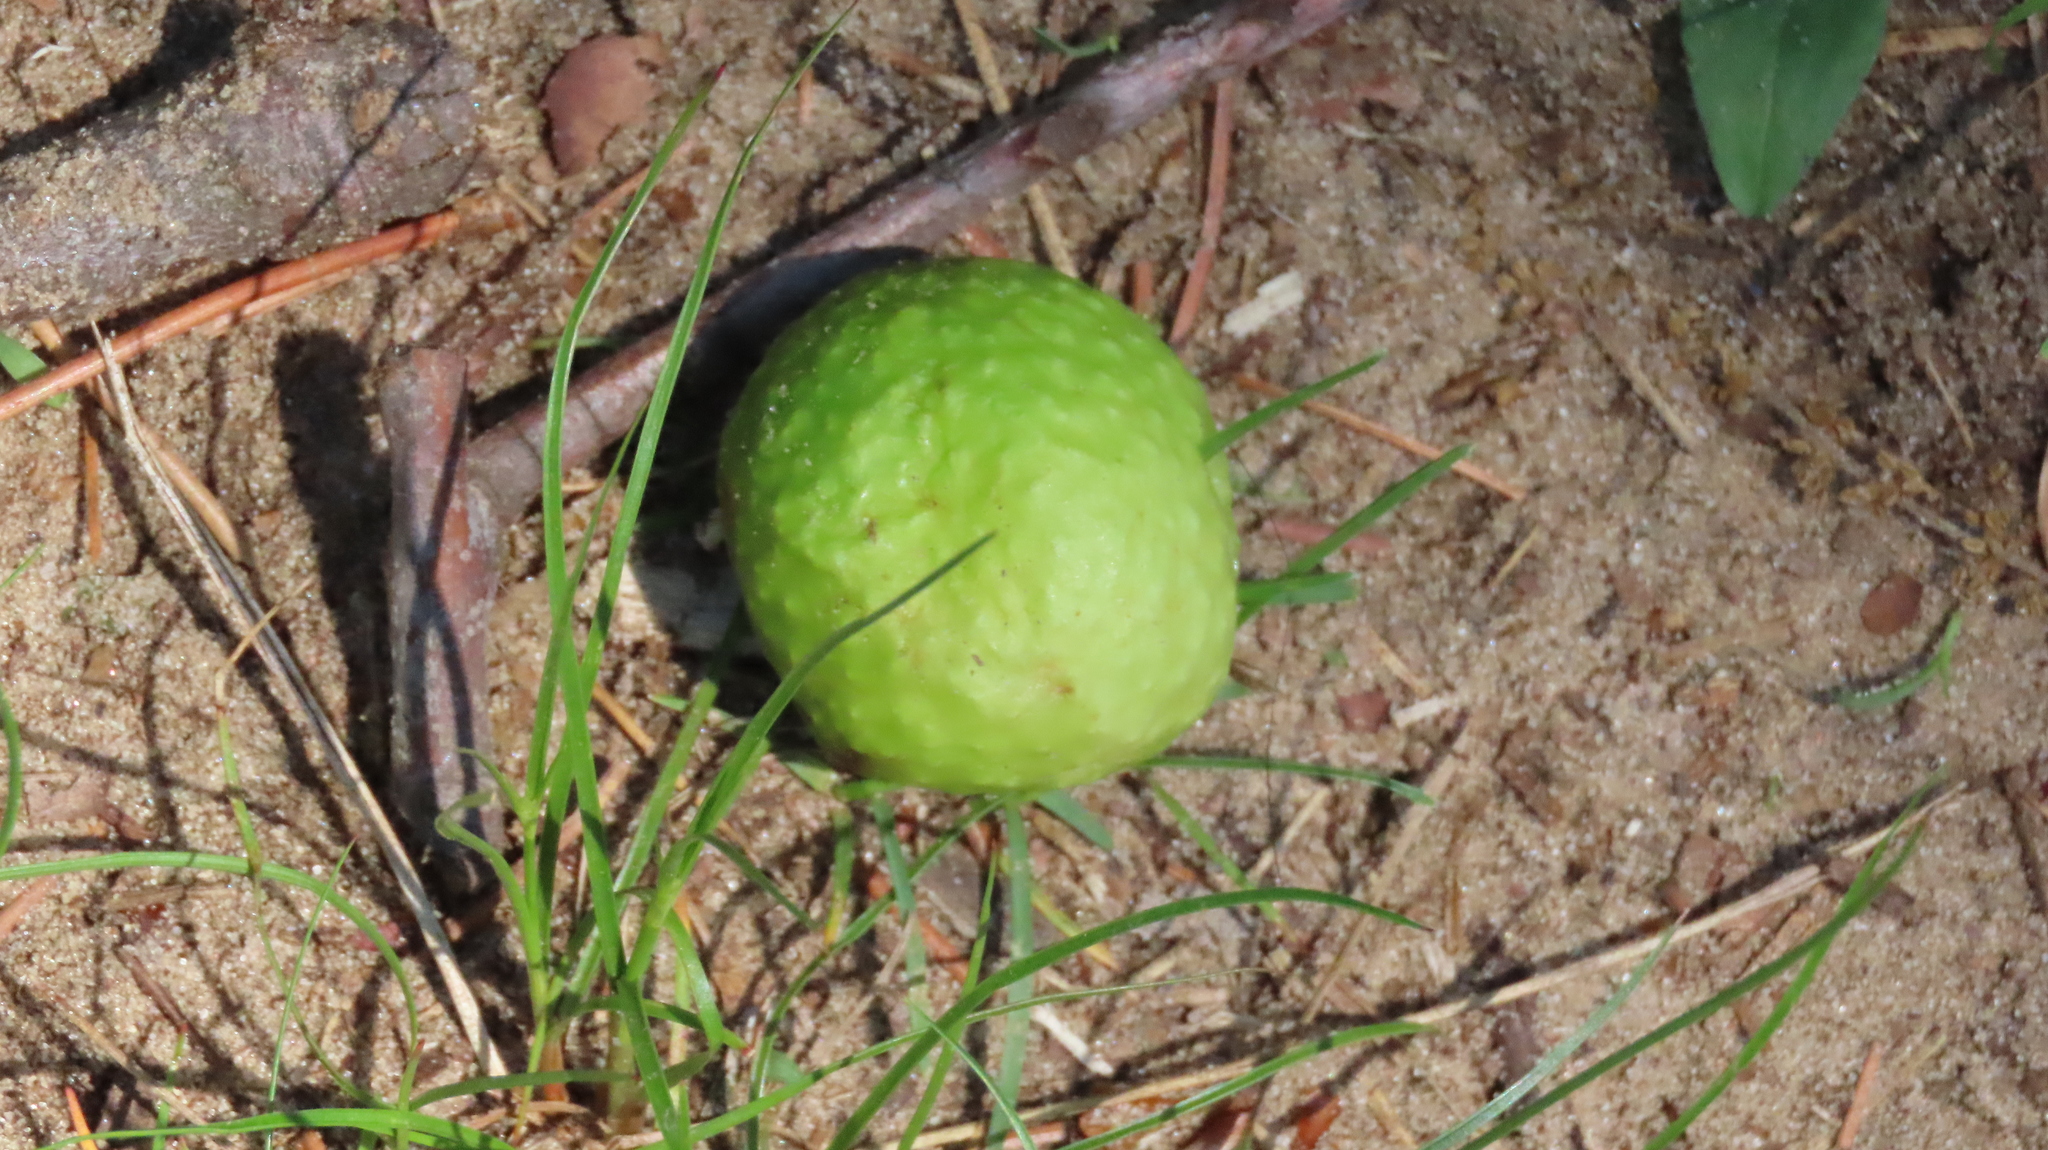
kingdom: Animalia
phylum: Arthropoda
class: Insecta
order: Hymenoptera
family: Cynipidae
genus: Amphibolips
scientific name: Amphibolips
